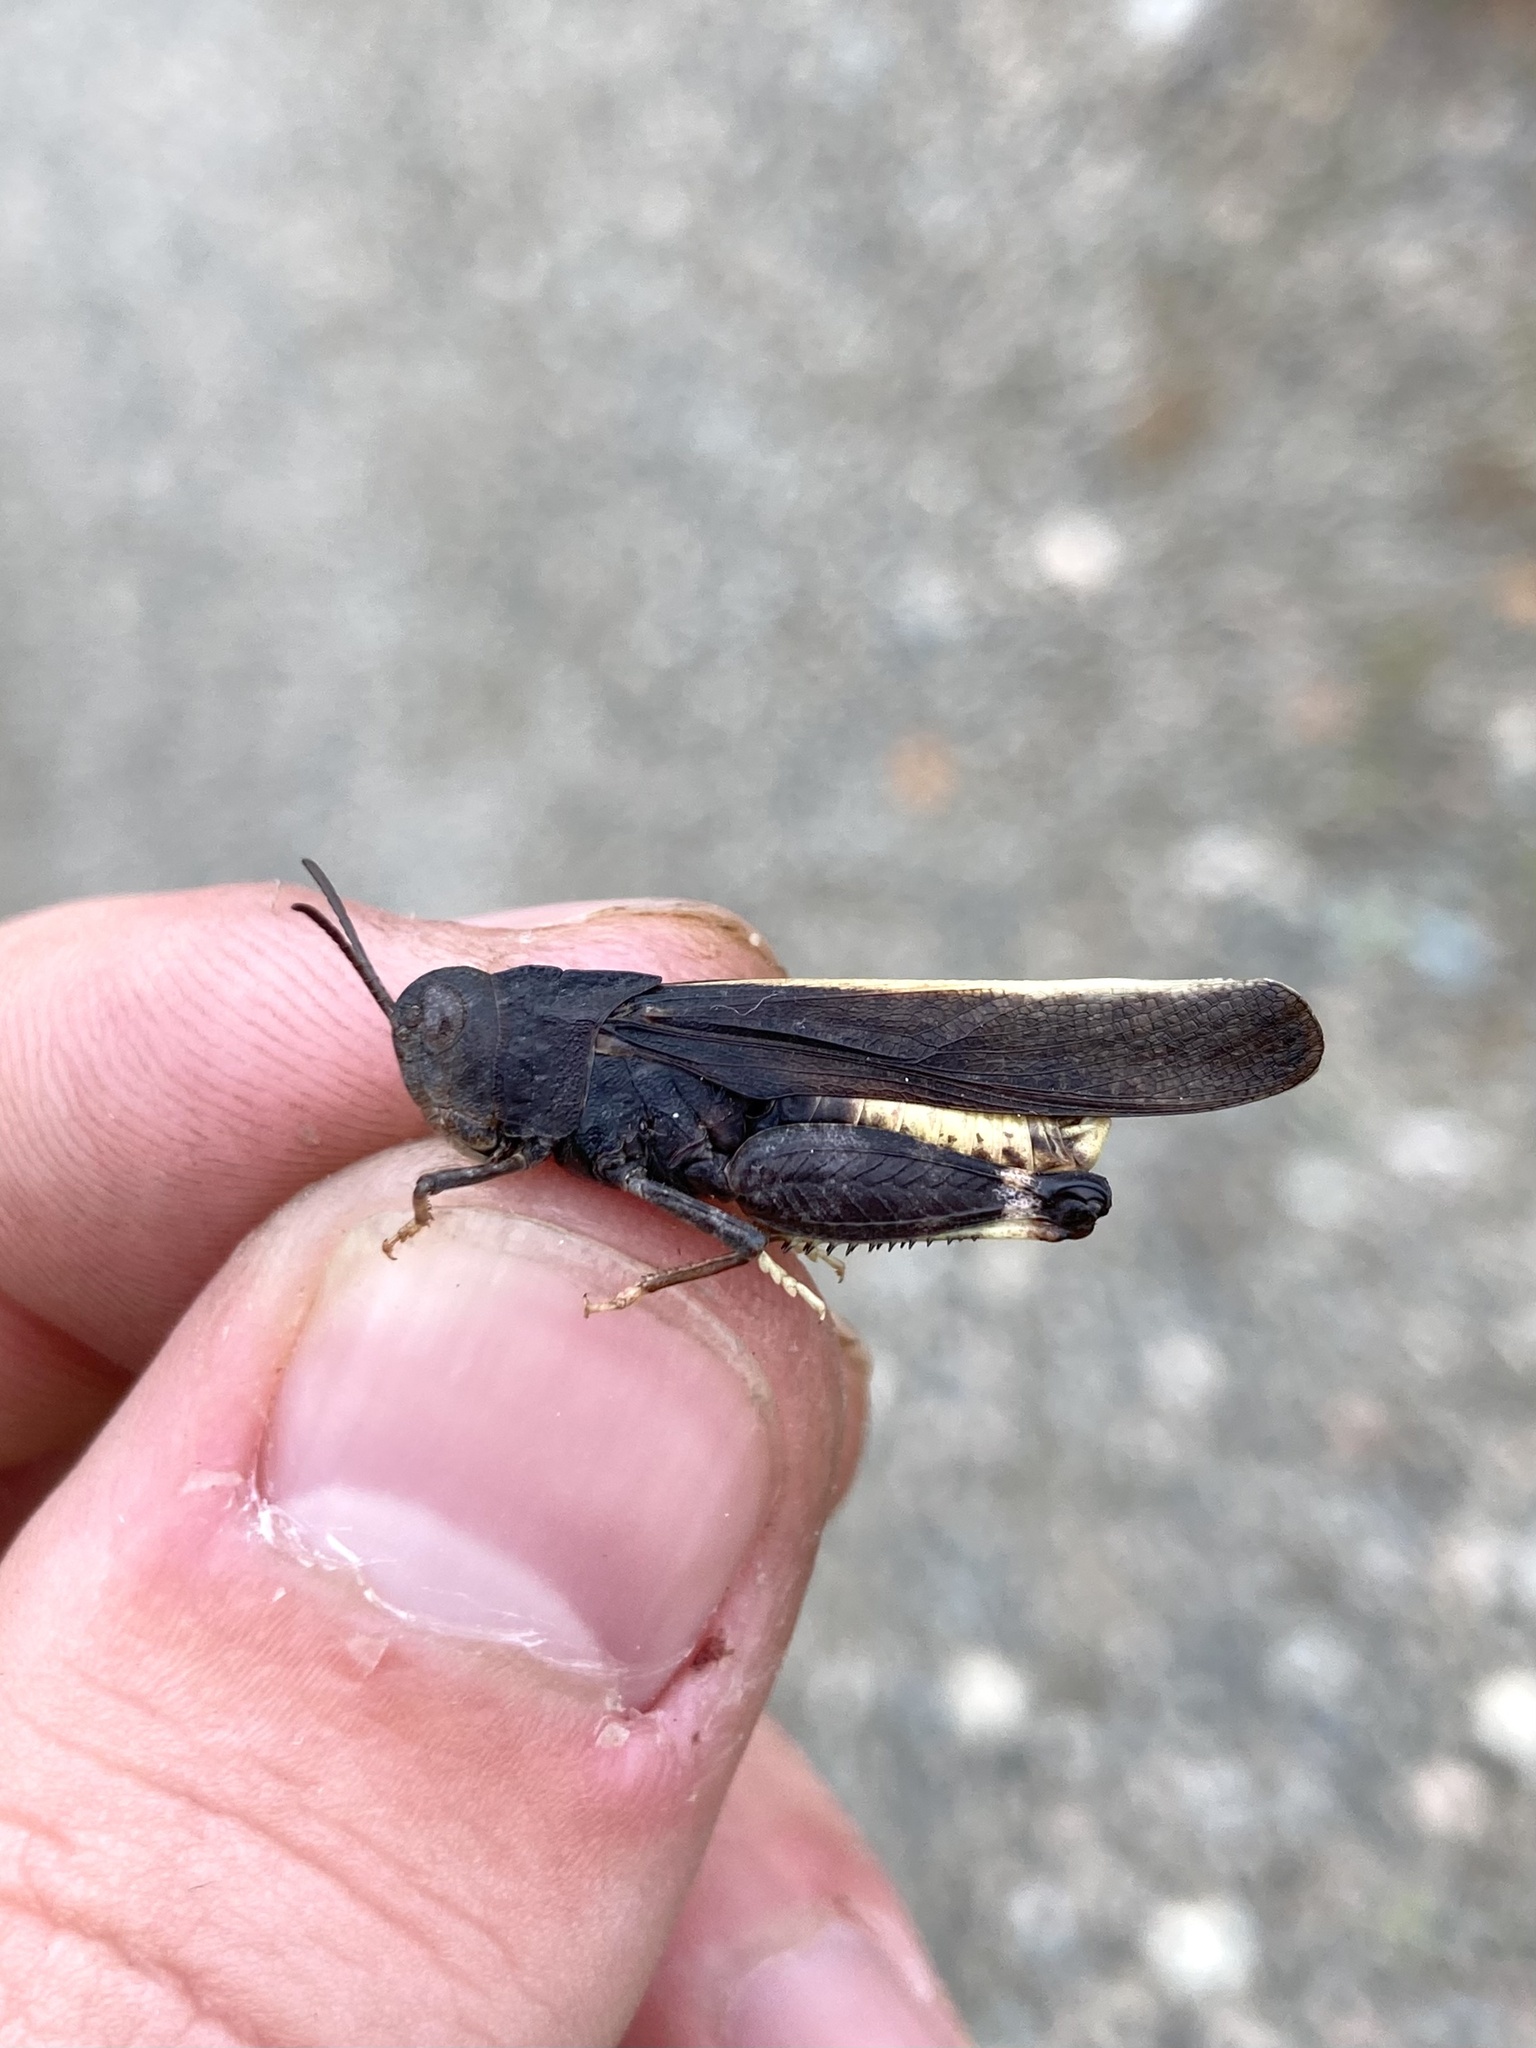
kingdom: Animalia
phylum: Arthropoda
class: Insecta
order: Orthoptera
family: Acrididae
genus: Arphia
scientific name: Arphia conspersa
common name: Speckle-winged rangeland grasshopper
